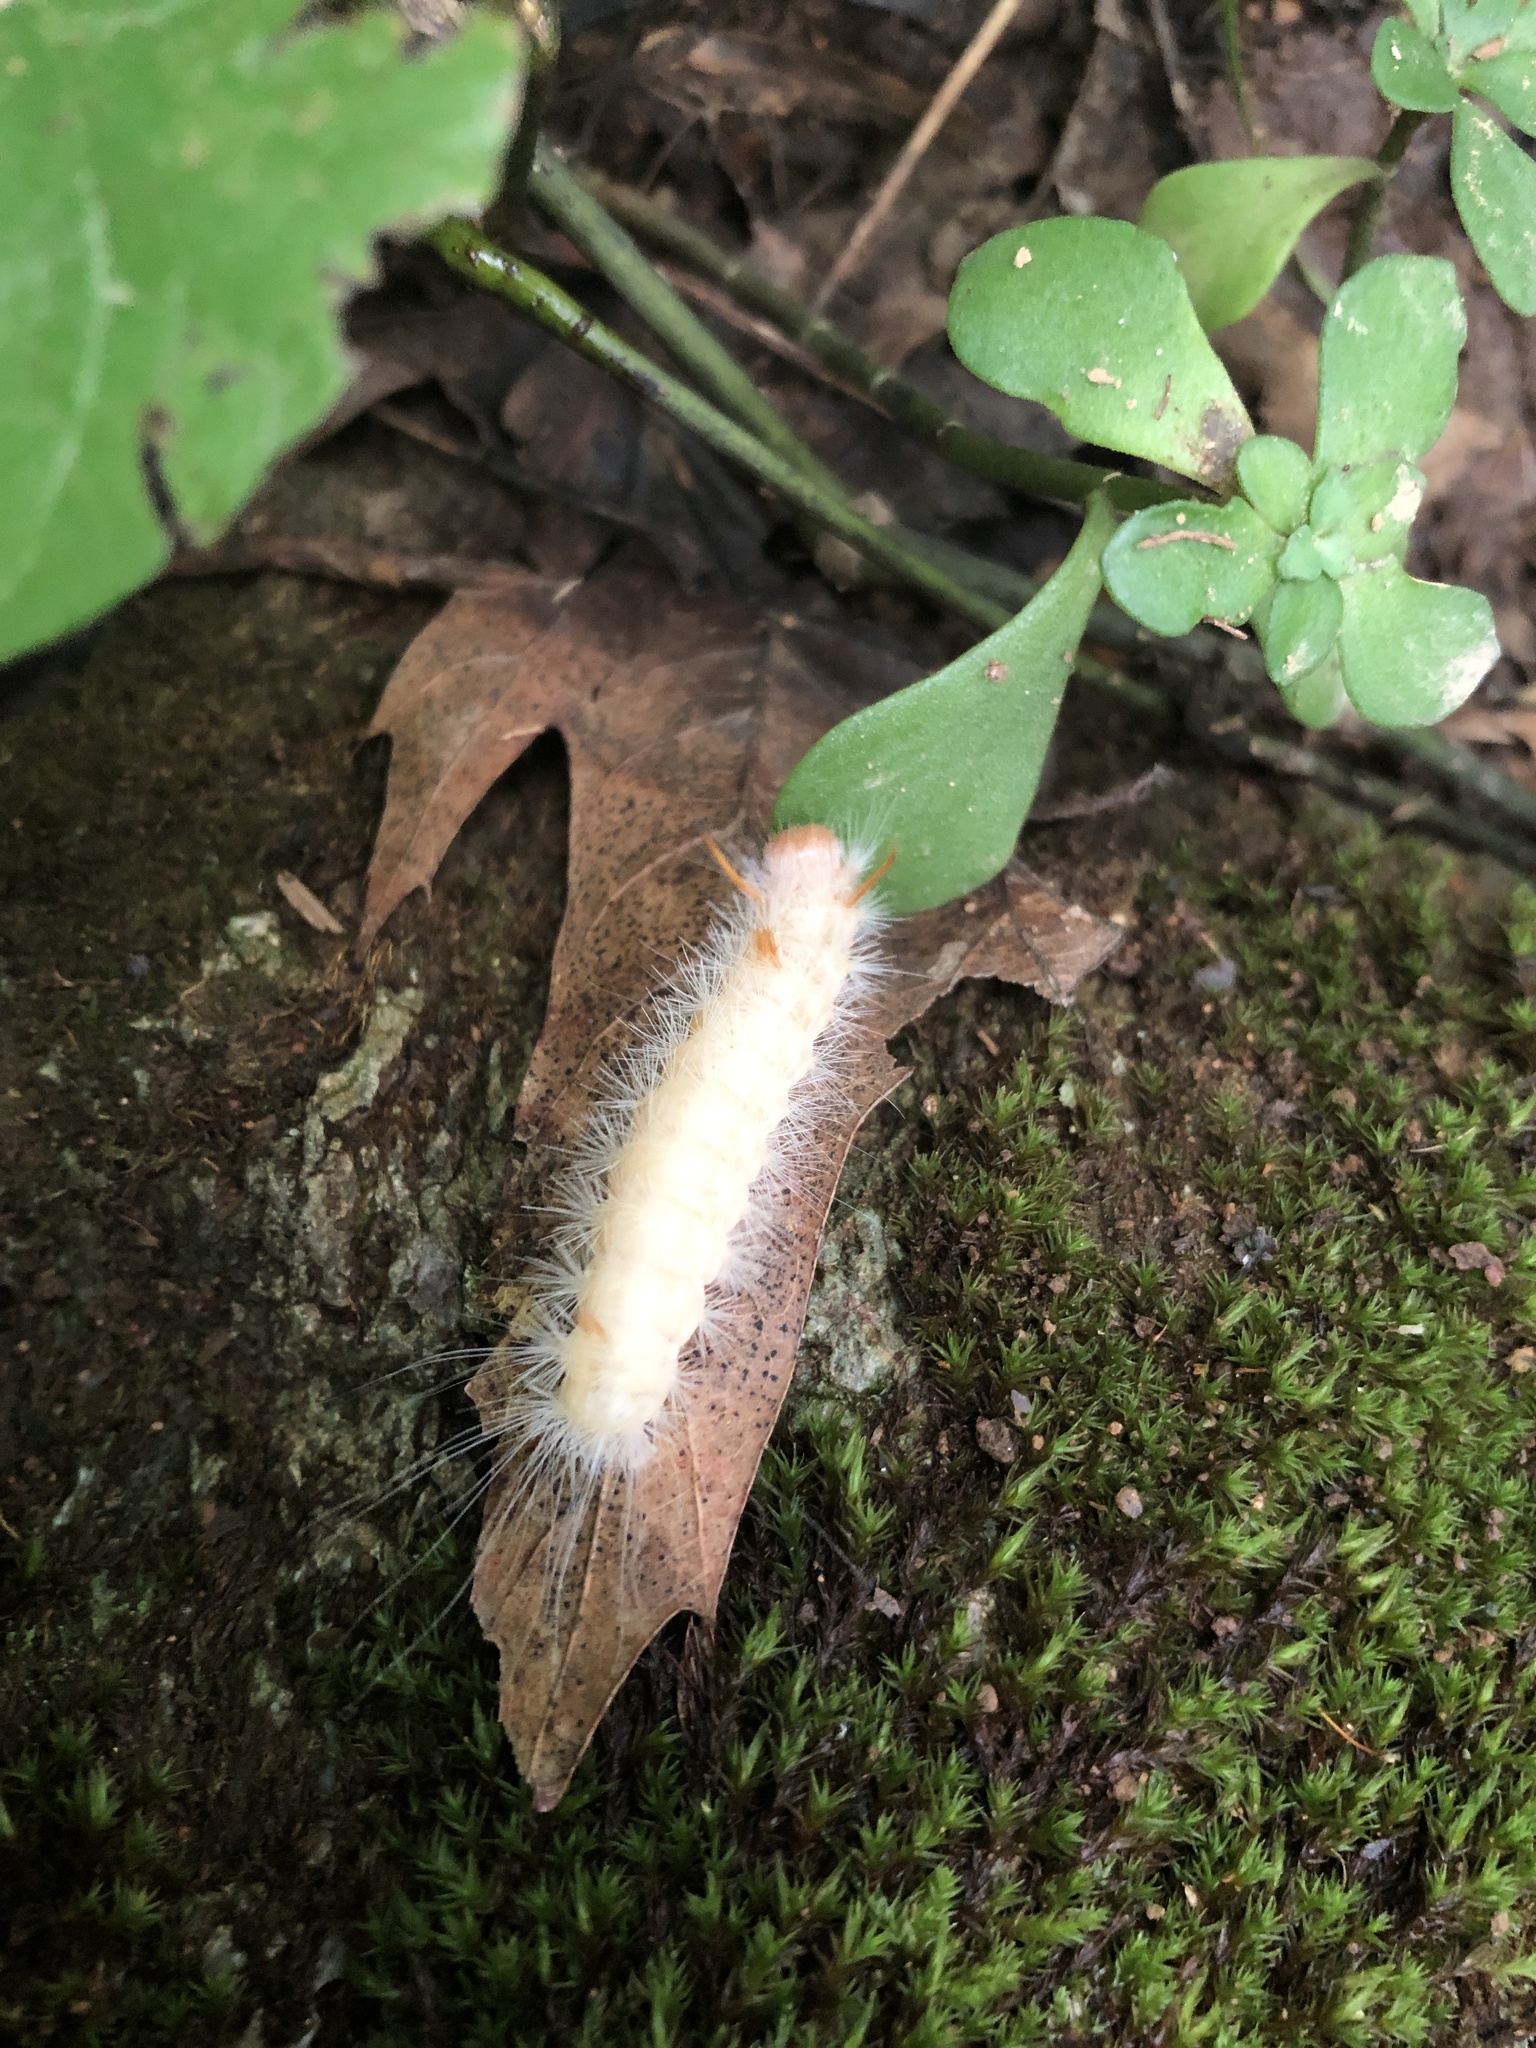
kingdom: Animalia
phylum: Arthropoda
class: Insecta
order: Lepidoptera
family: Noctuidae
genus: Colocasia
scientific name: Colocasia propinquilinea
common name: Close-banded demas
